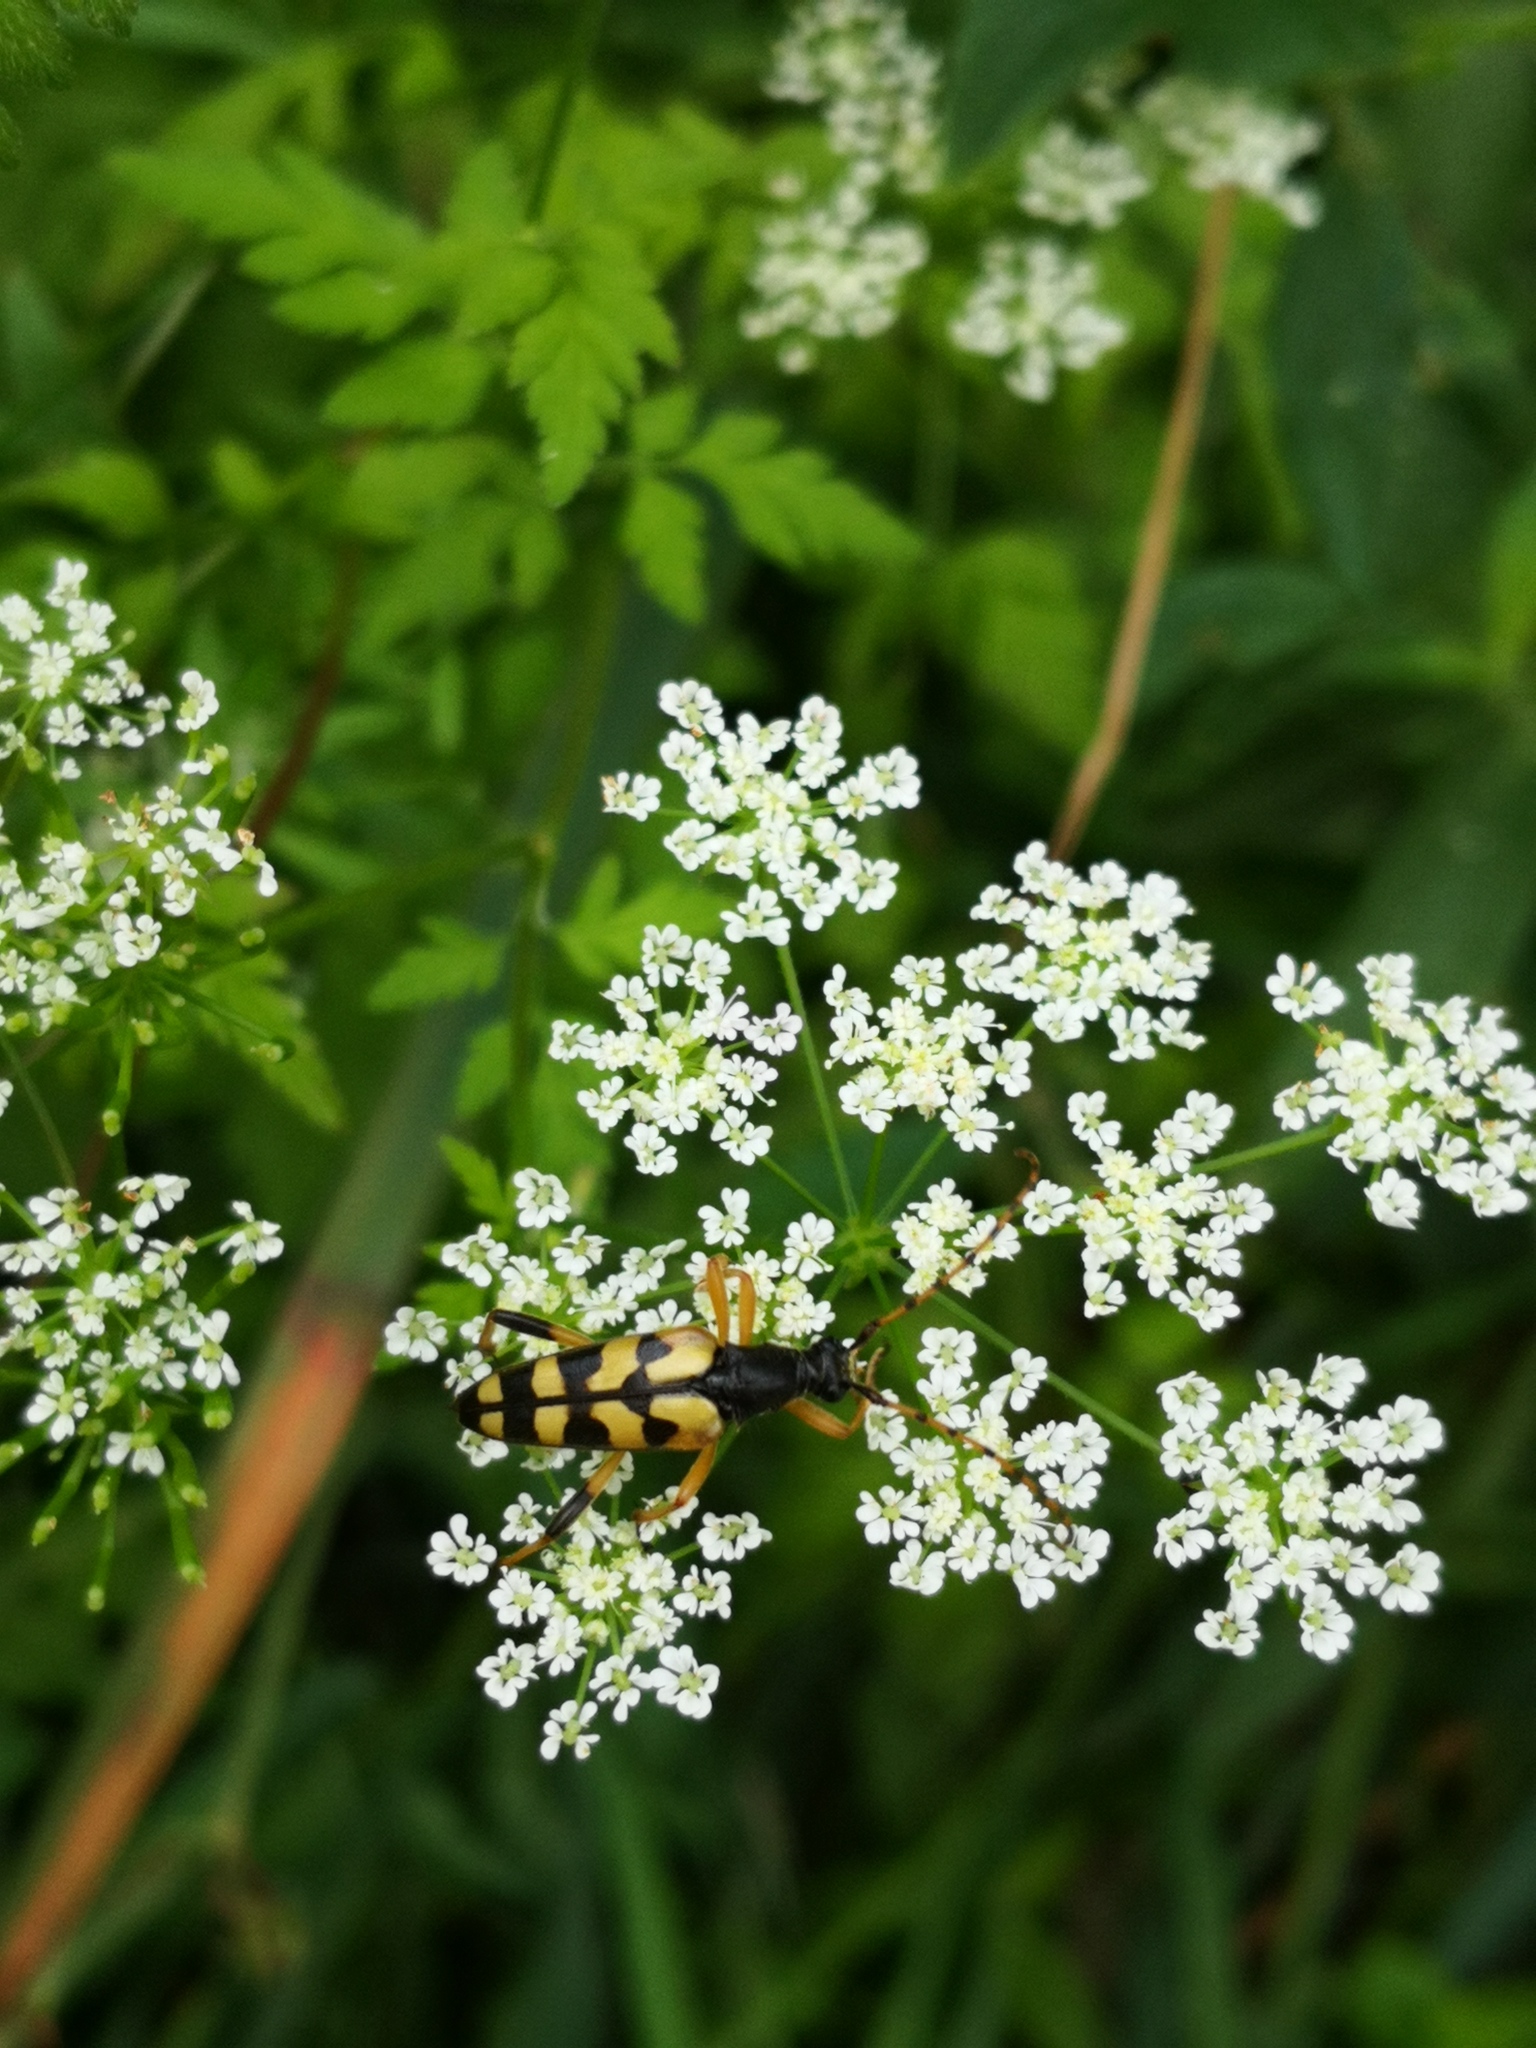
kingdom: Animalia
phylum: Arthropoda
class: Insecta
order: Coleoptera
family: Cerambycidae
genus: Rutpela
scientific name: Rutpela maculata
